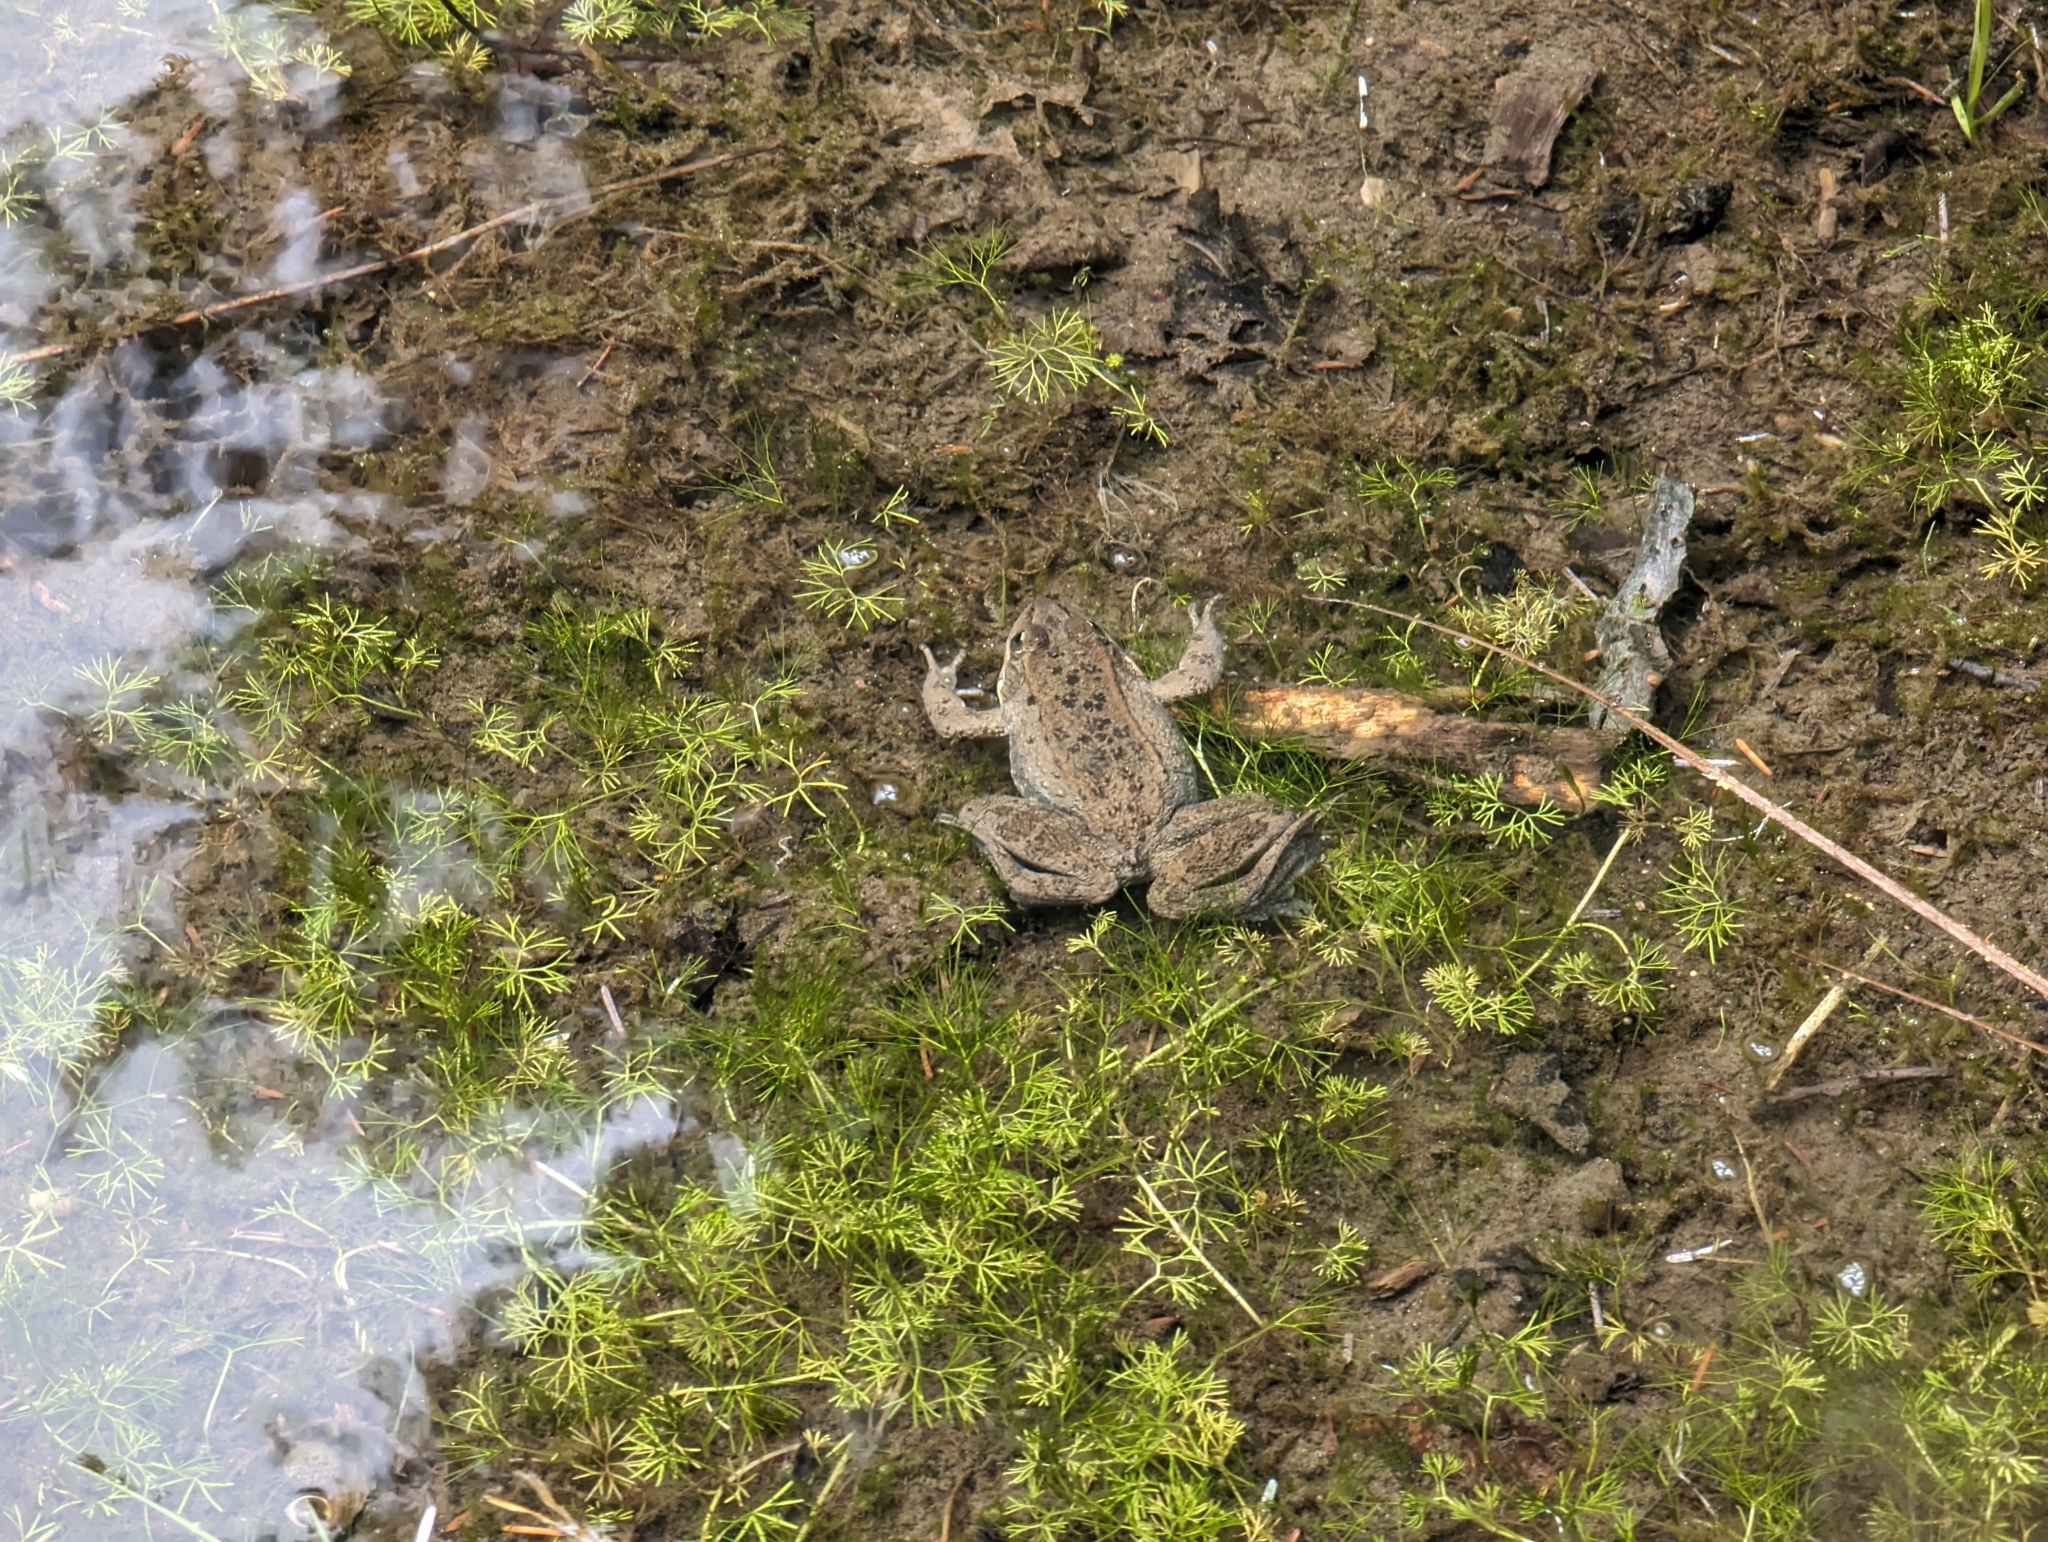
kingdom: Animalia
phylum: Chordata
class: Amphibia
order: Anura
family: Ranidae
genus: Rana
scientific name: Rana luteiventris
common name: Columbia spotted frog
